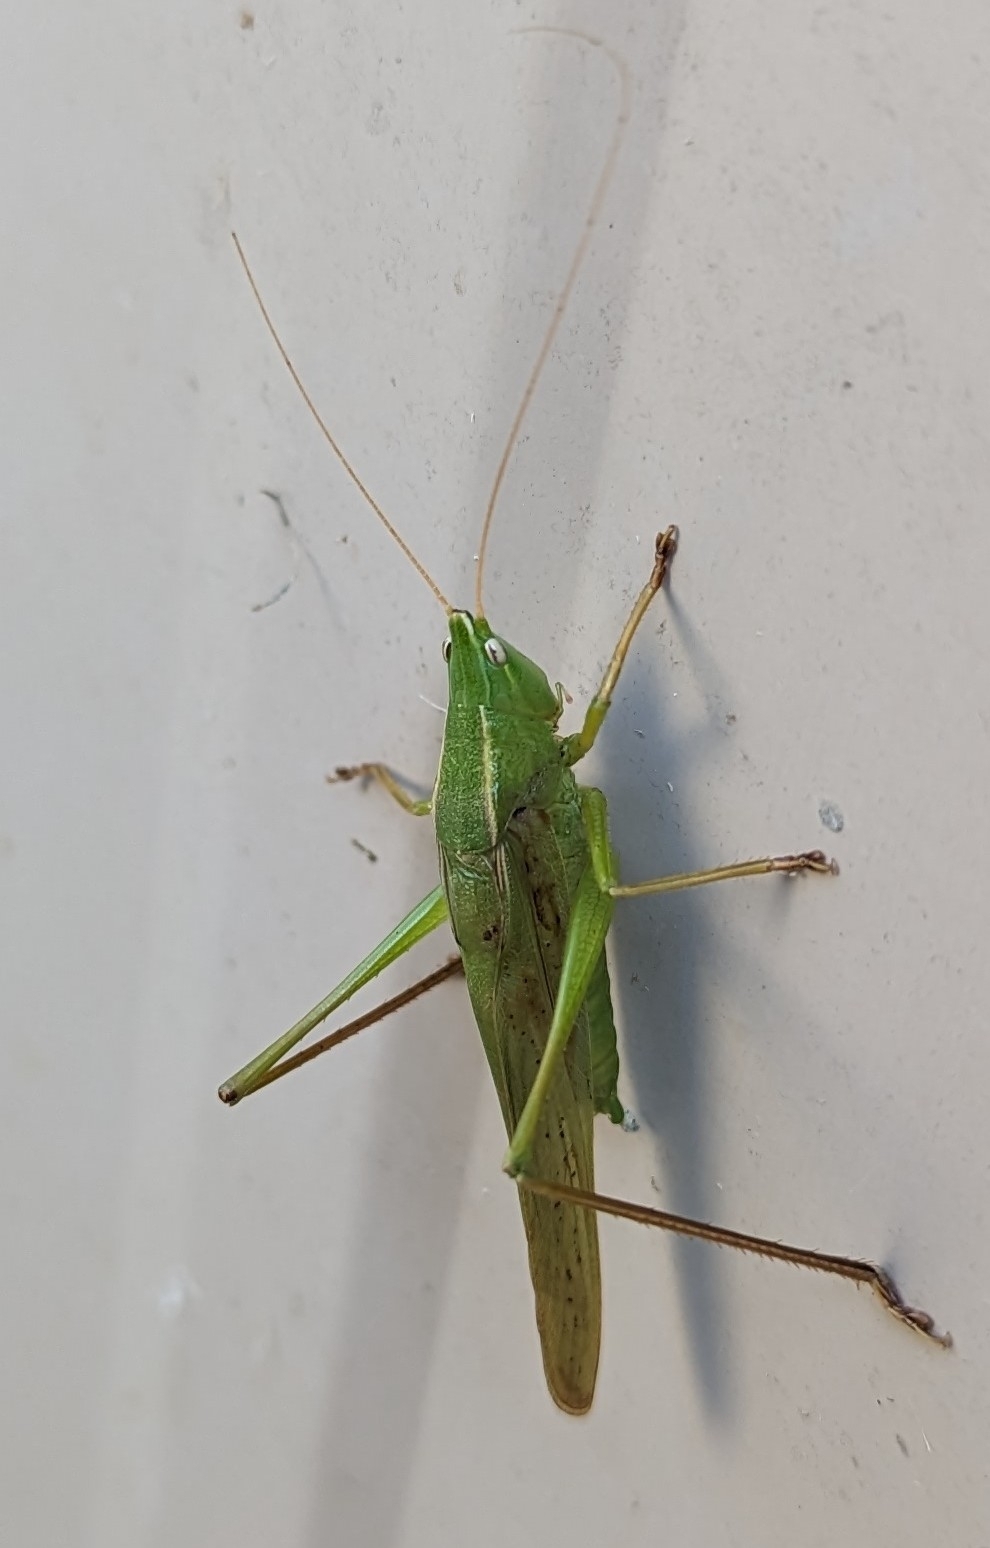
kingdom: Animalia
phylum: Arthropoda
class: Insecta
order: Orthoptera
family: Tettigoniidae
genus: Neoconocephalus
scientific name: Neoconocephalus retusus
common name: Round-tipped conehead
